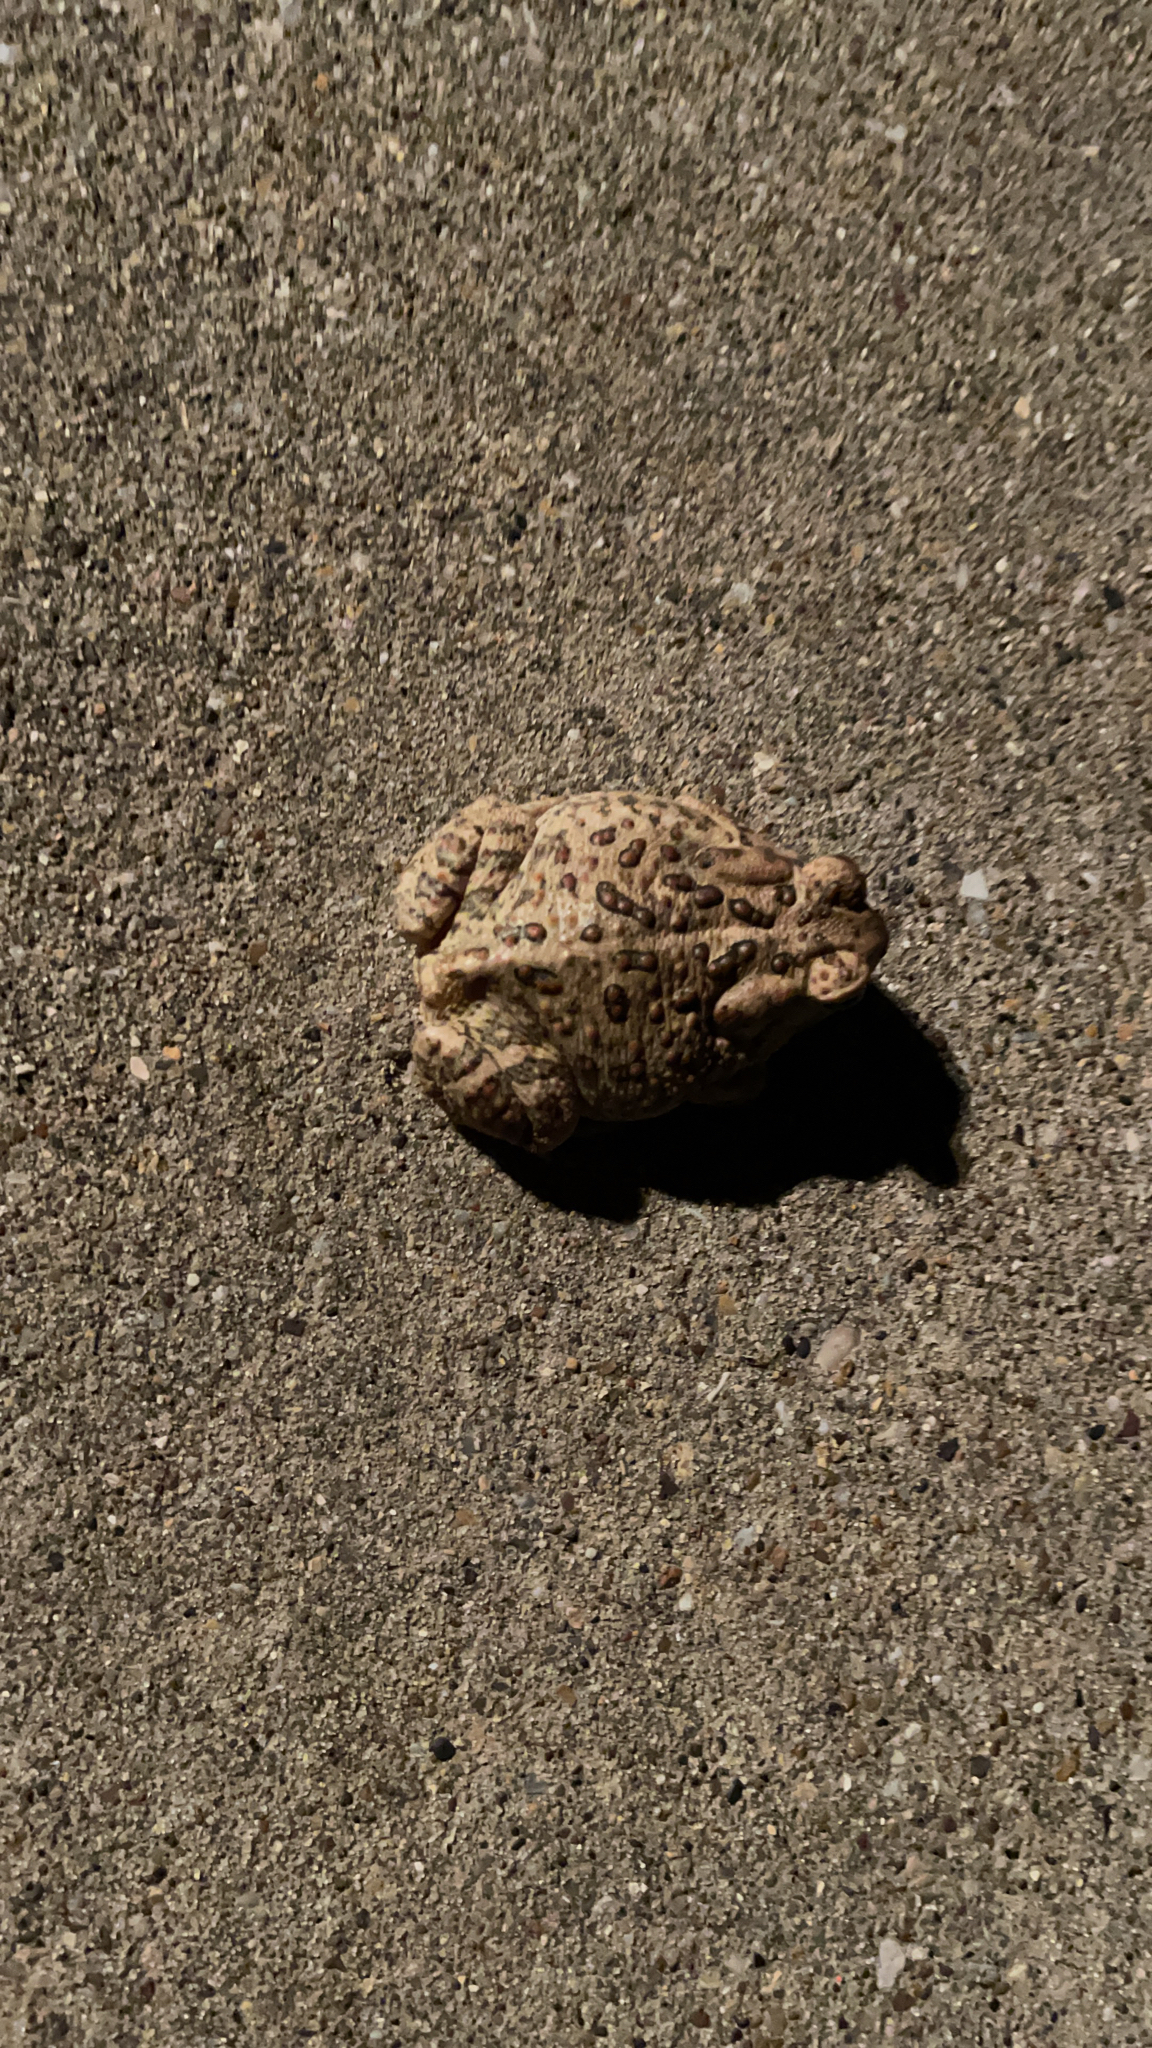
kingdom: Animalia
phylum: Chordata
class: Amphibia
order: Anura
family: Bufonidae
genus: Anaxyrus
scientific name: Anaxyrus woodhousii
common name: Woodhouse's toad
